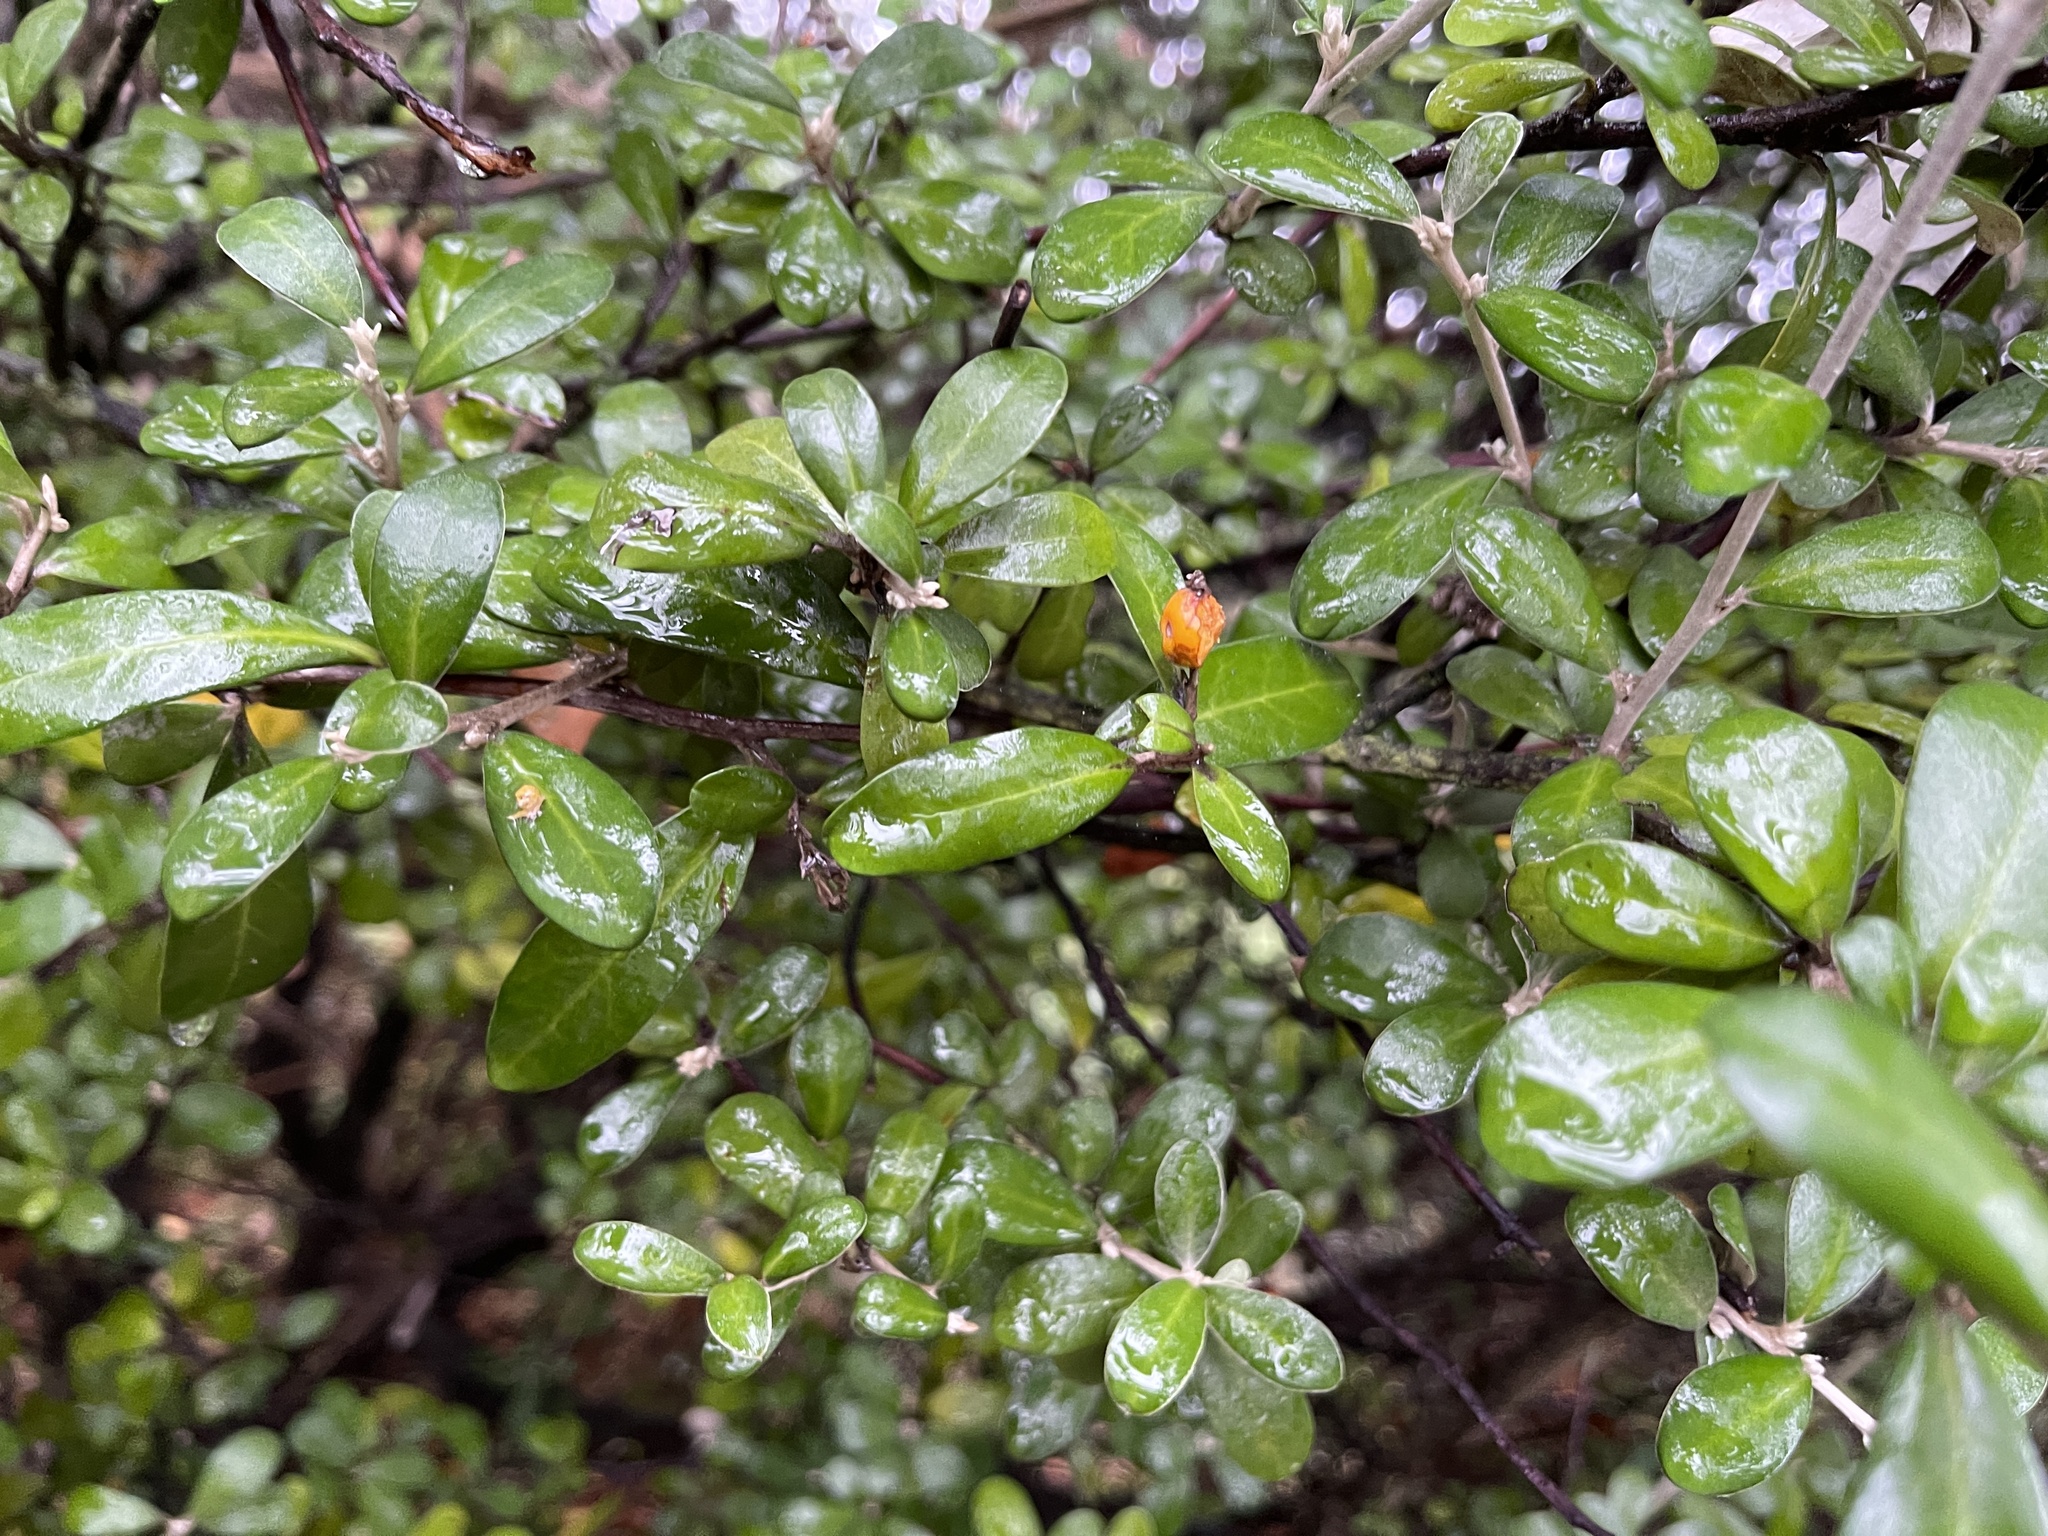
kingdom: Plantae
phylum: Tracheophyta
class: Magnoliopsida
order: Asterales
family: Argophyllaceae
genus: Corokia
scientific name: Corokia virgata
